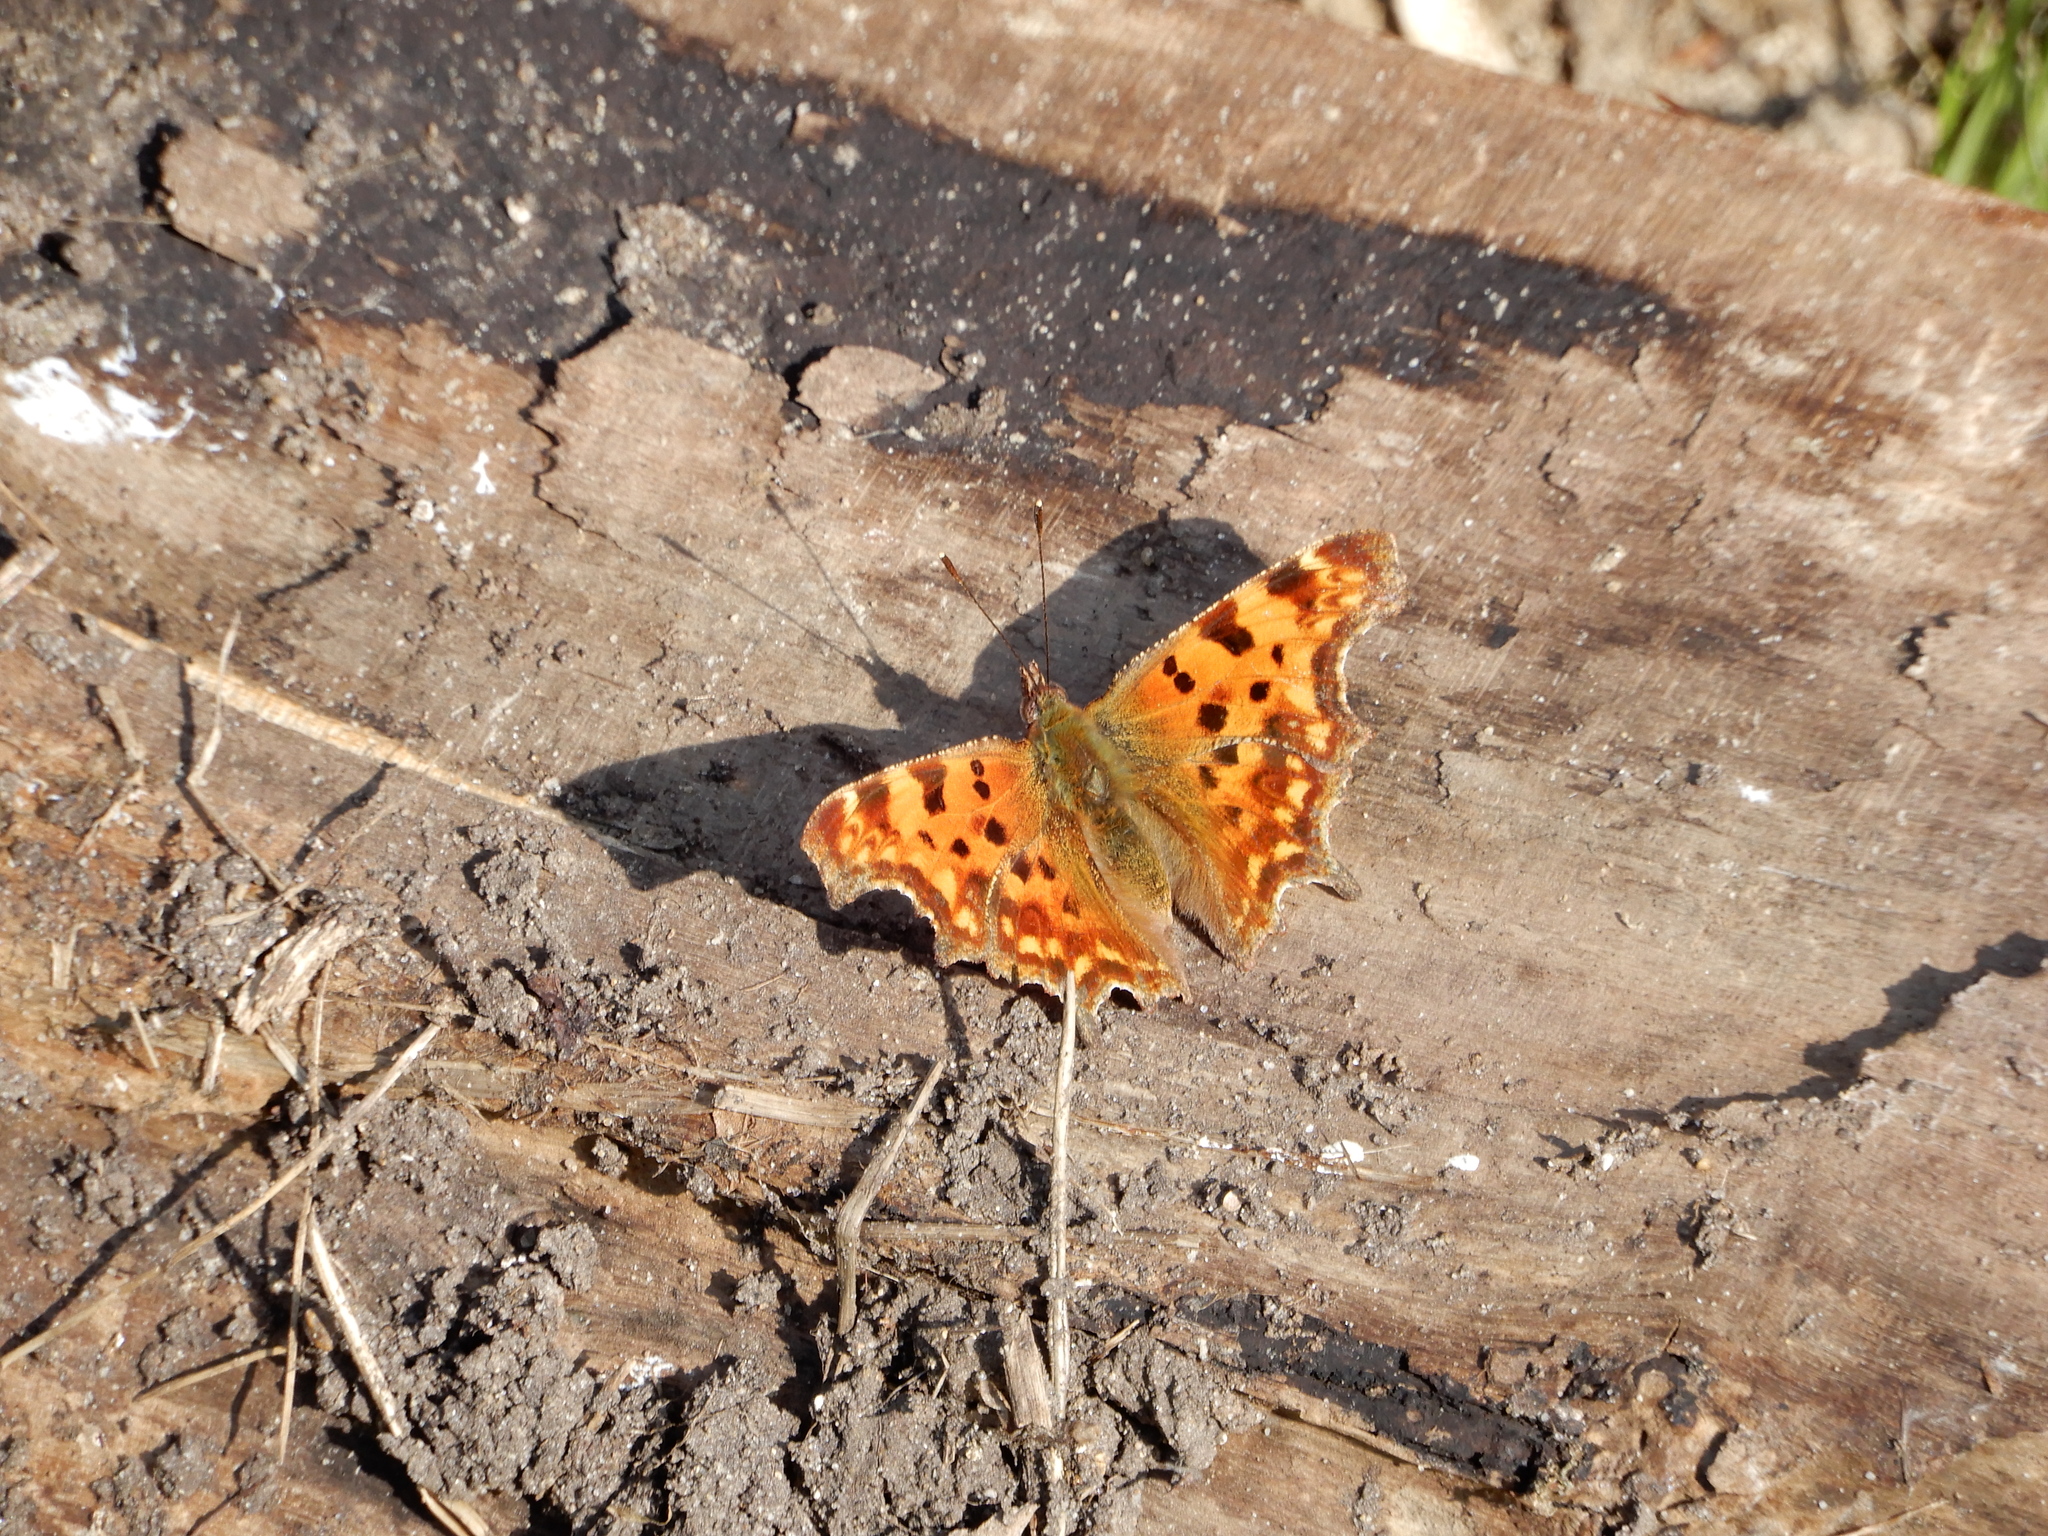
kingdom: Animalia
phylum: Arthropoda
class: Insecta
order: Lepidoptera
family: Nymphalidae
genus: Polygonia
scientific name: Polygonia c-album
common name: Comma
